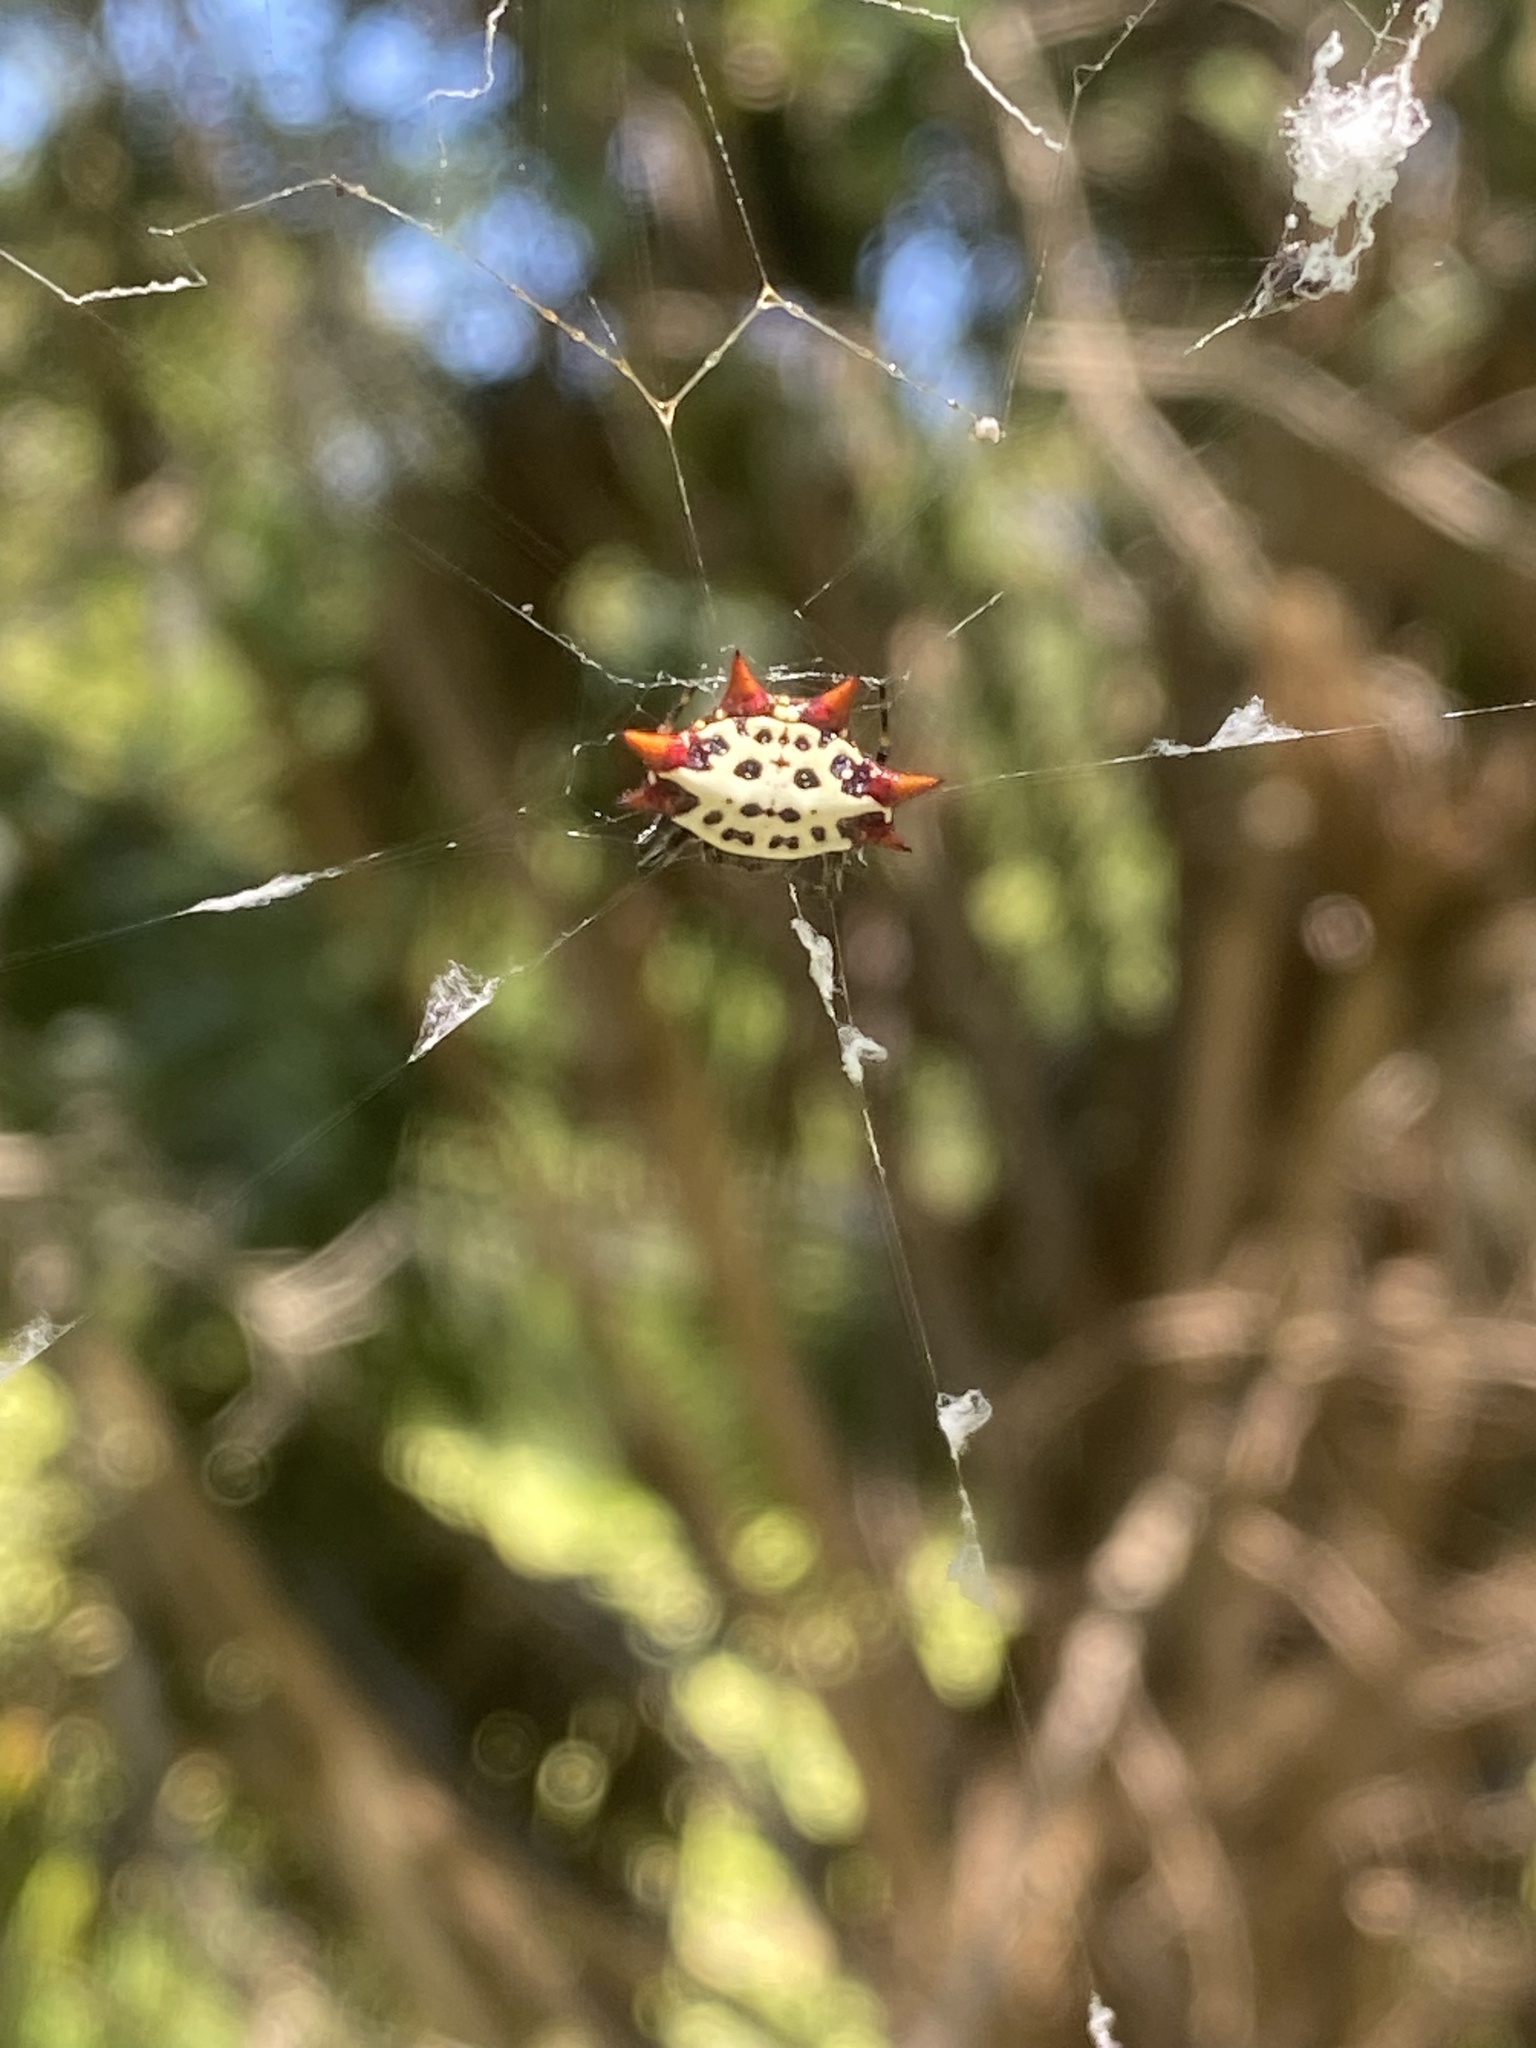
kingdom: Animalia
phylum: Arthropoda
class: Arachnida
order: Araneae
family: Araneidae
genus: Gasteracantha
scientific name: Gasteracantha cancriformis
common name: Orb weavers
